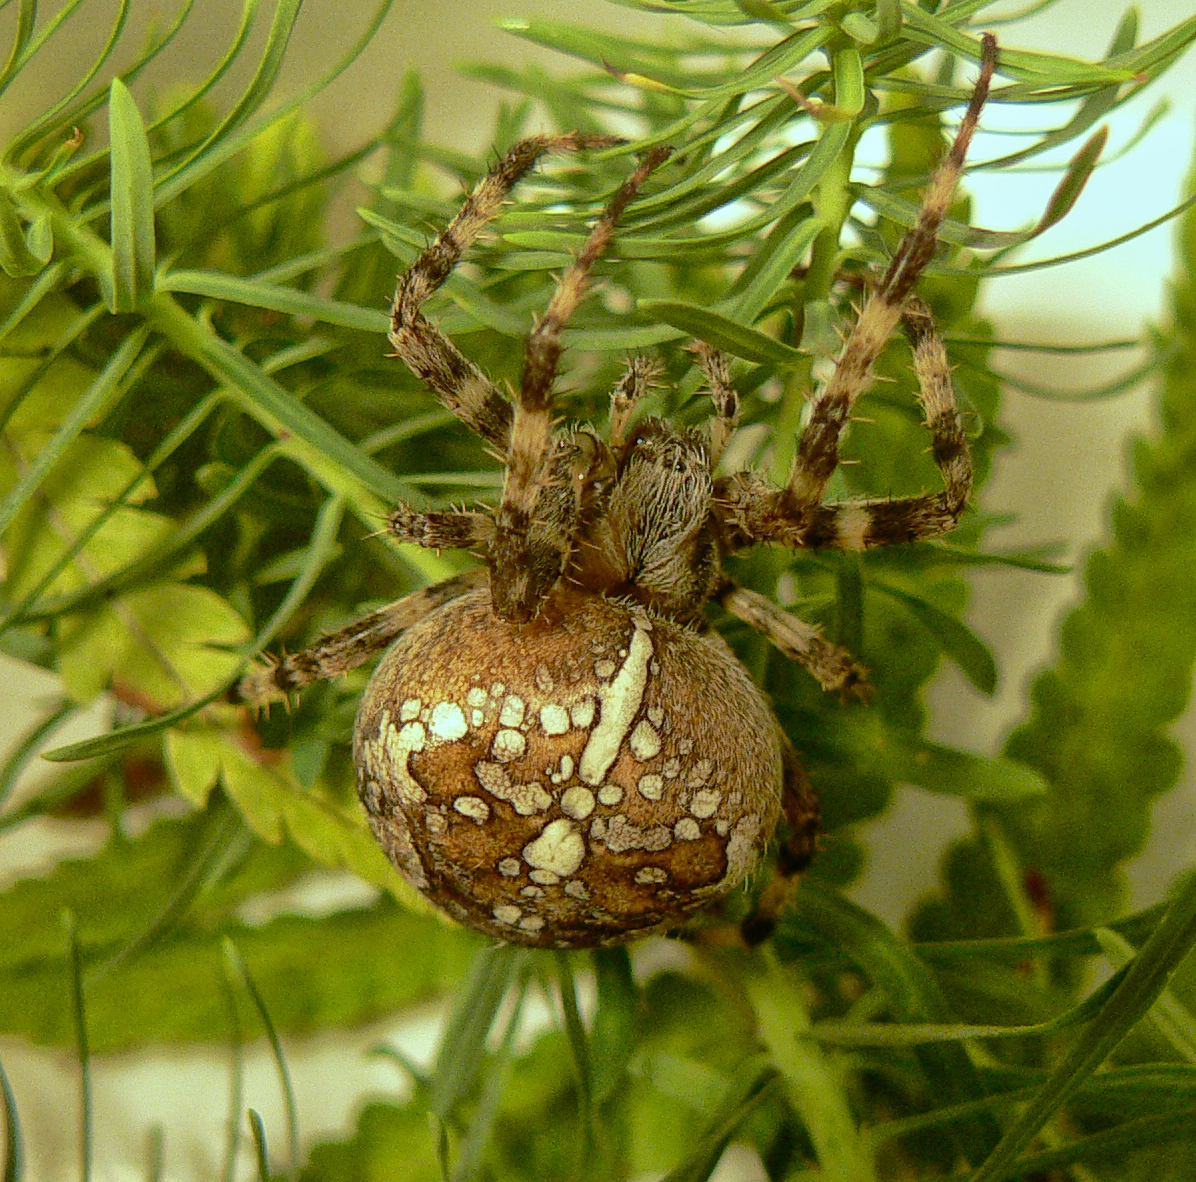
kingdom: Animalia
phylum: Arthropoda
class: Arachnida
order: Araneae
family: Araneidae
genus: Araneus
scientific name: Araneus diadematus
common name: Cross orbweaver
